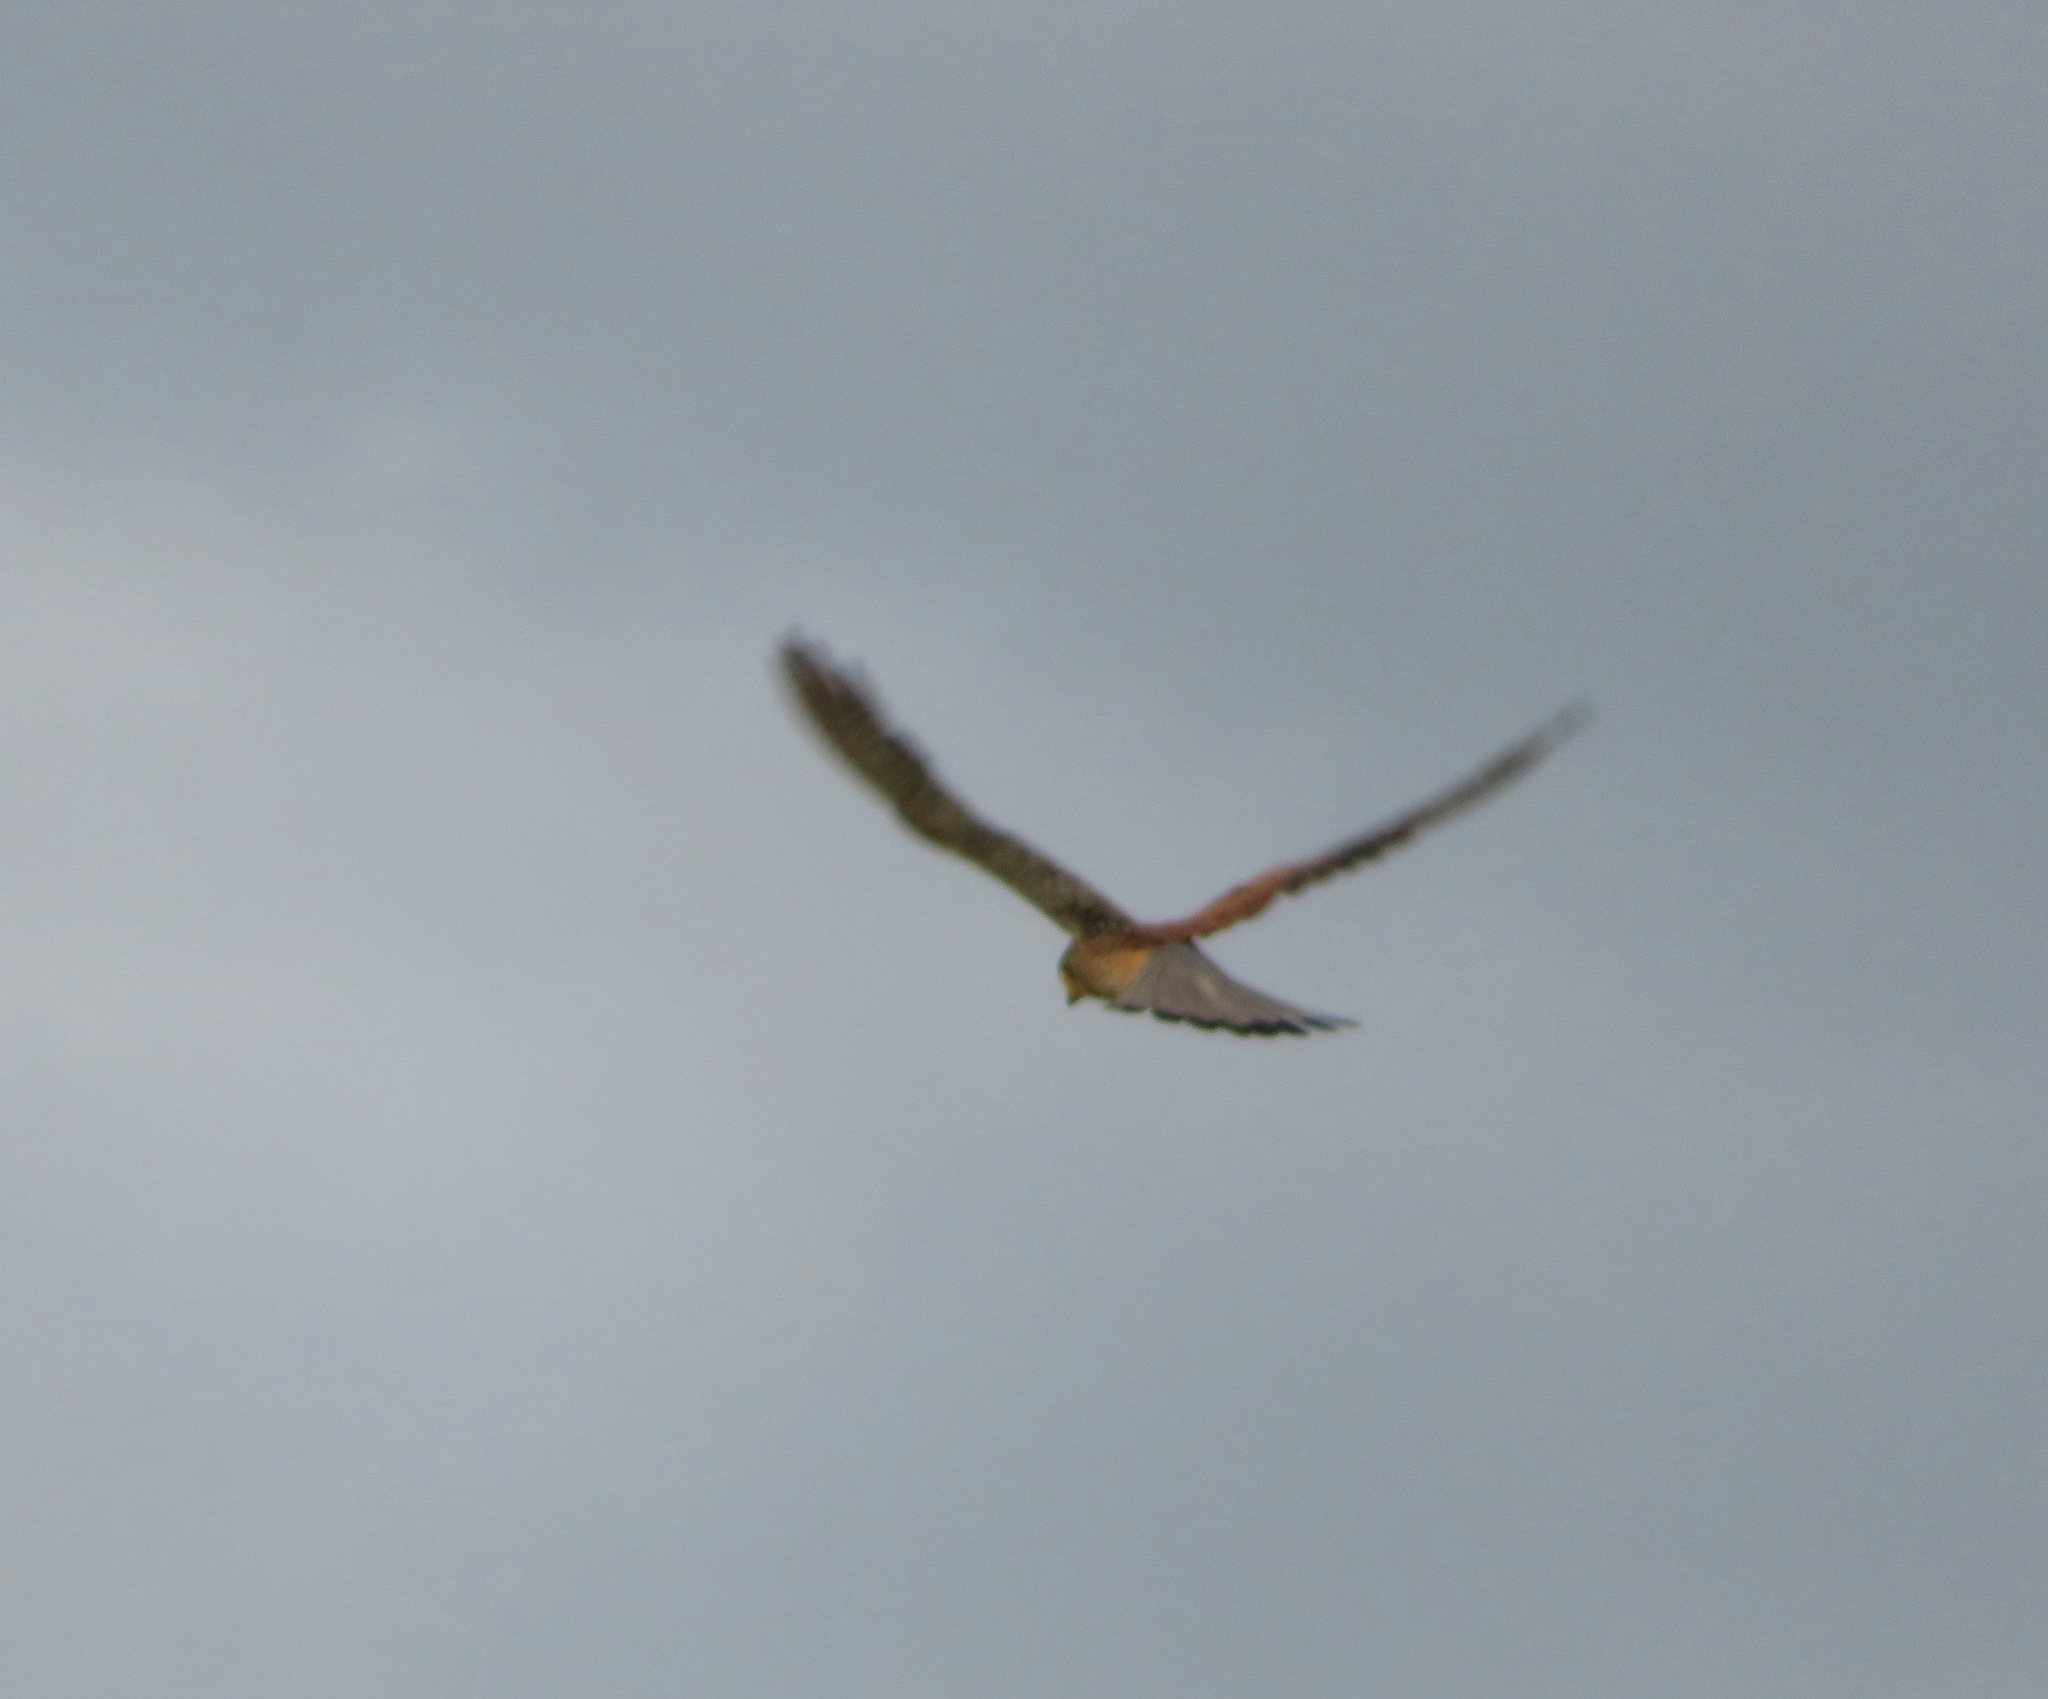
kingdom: Animalia
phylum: Chordata
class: Aves
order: Falconiformes
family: Falconidae
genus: Falco
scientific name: Falco tinnunculus
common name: Common kestrel
